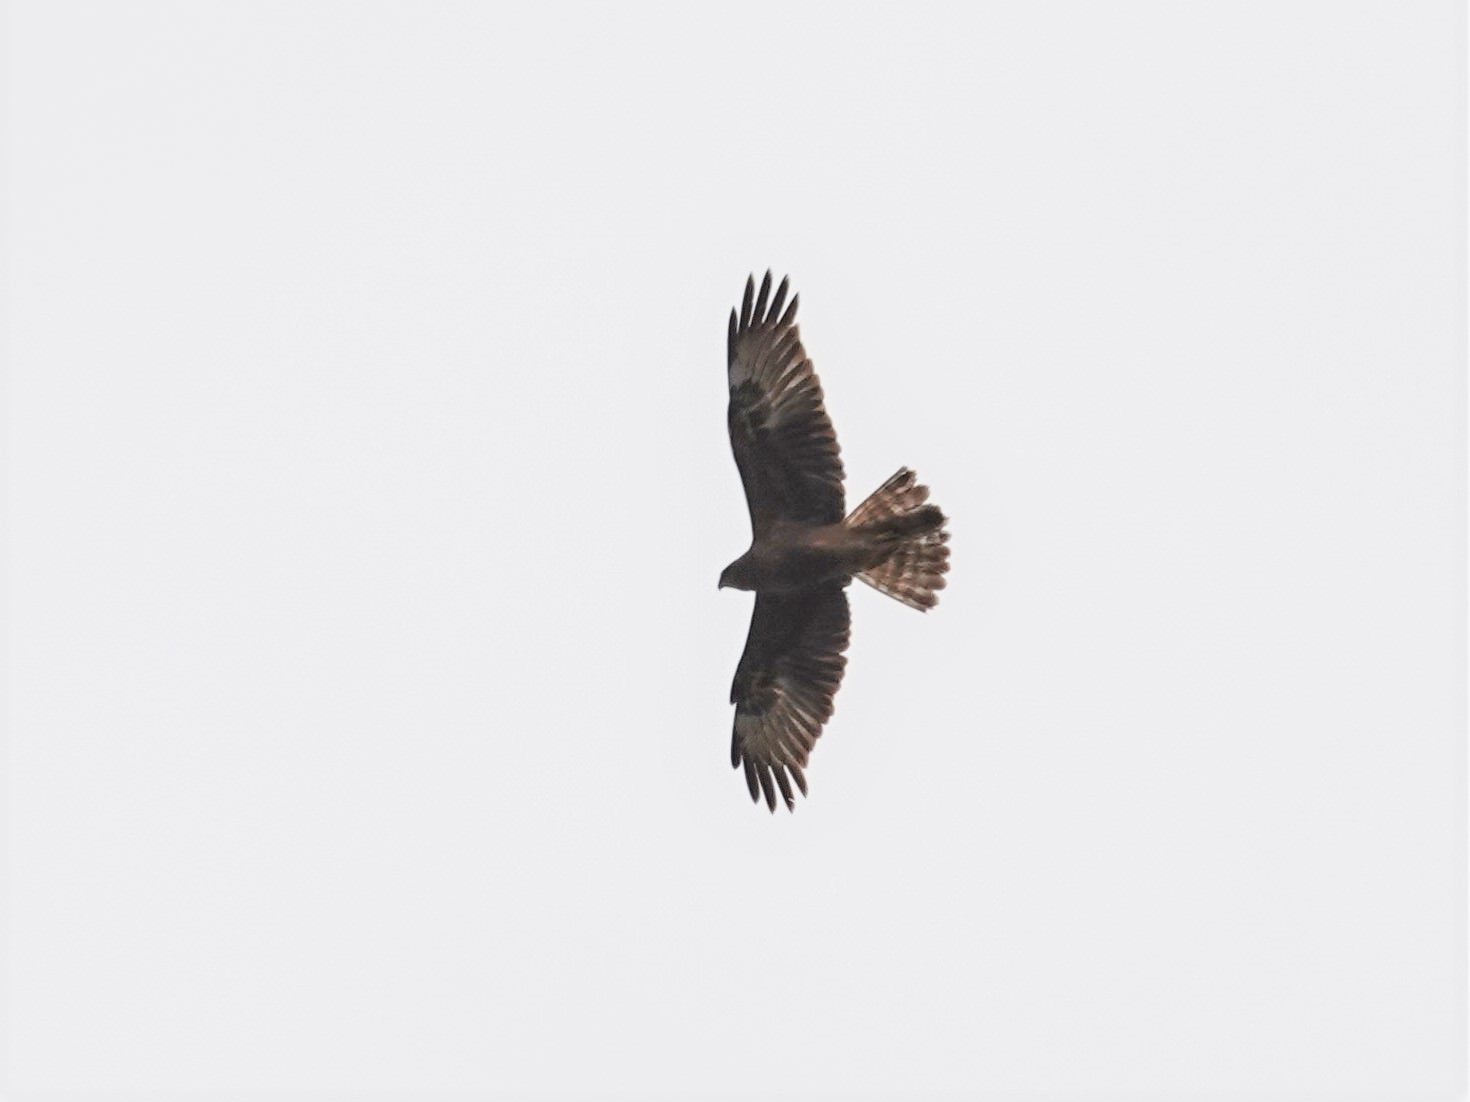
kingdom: Animalia
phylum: Chordata
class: Aves
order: Accipitriformes
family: Accipitridae
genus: Circus
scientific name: Circus approximans
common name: Swamp harrier
